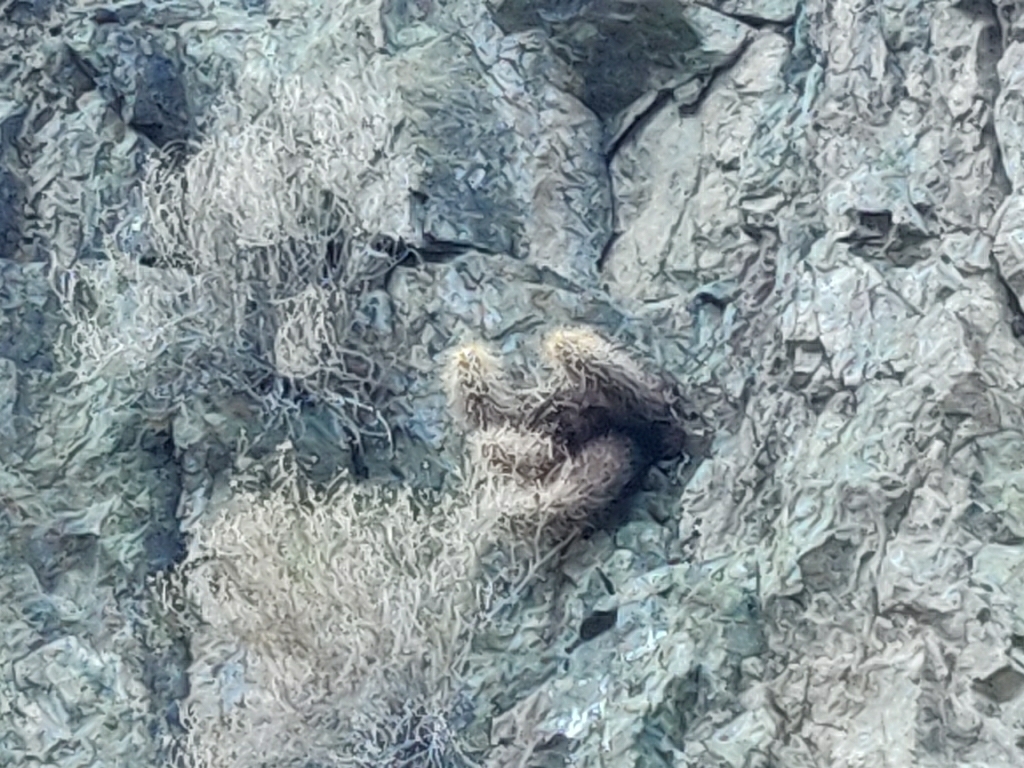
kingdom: Plantae
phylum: Tracheophyta
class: Magnoliopsida
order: Caryophyllales
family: Cactaceae
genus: Echinocereus
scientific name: Echinocereus engelmannii
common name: Engelmann's hedgehog cactus
